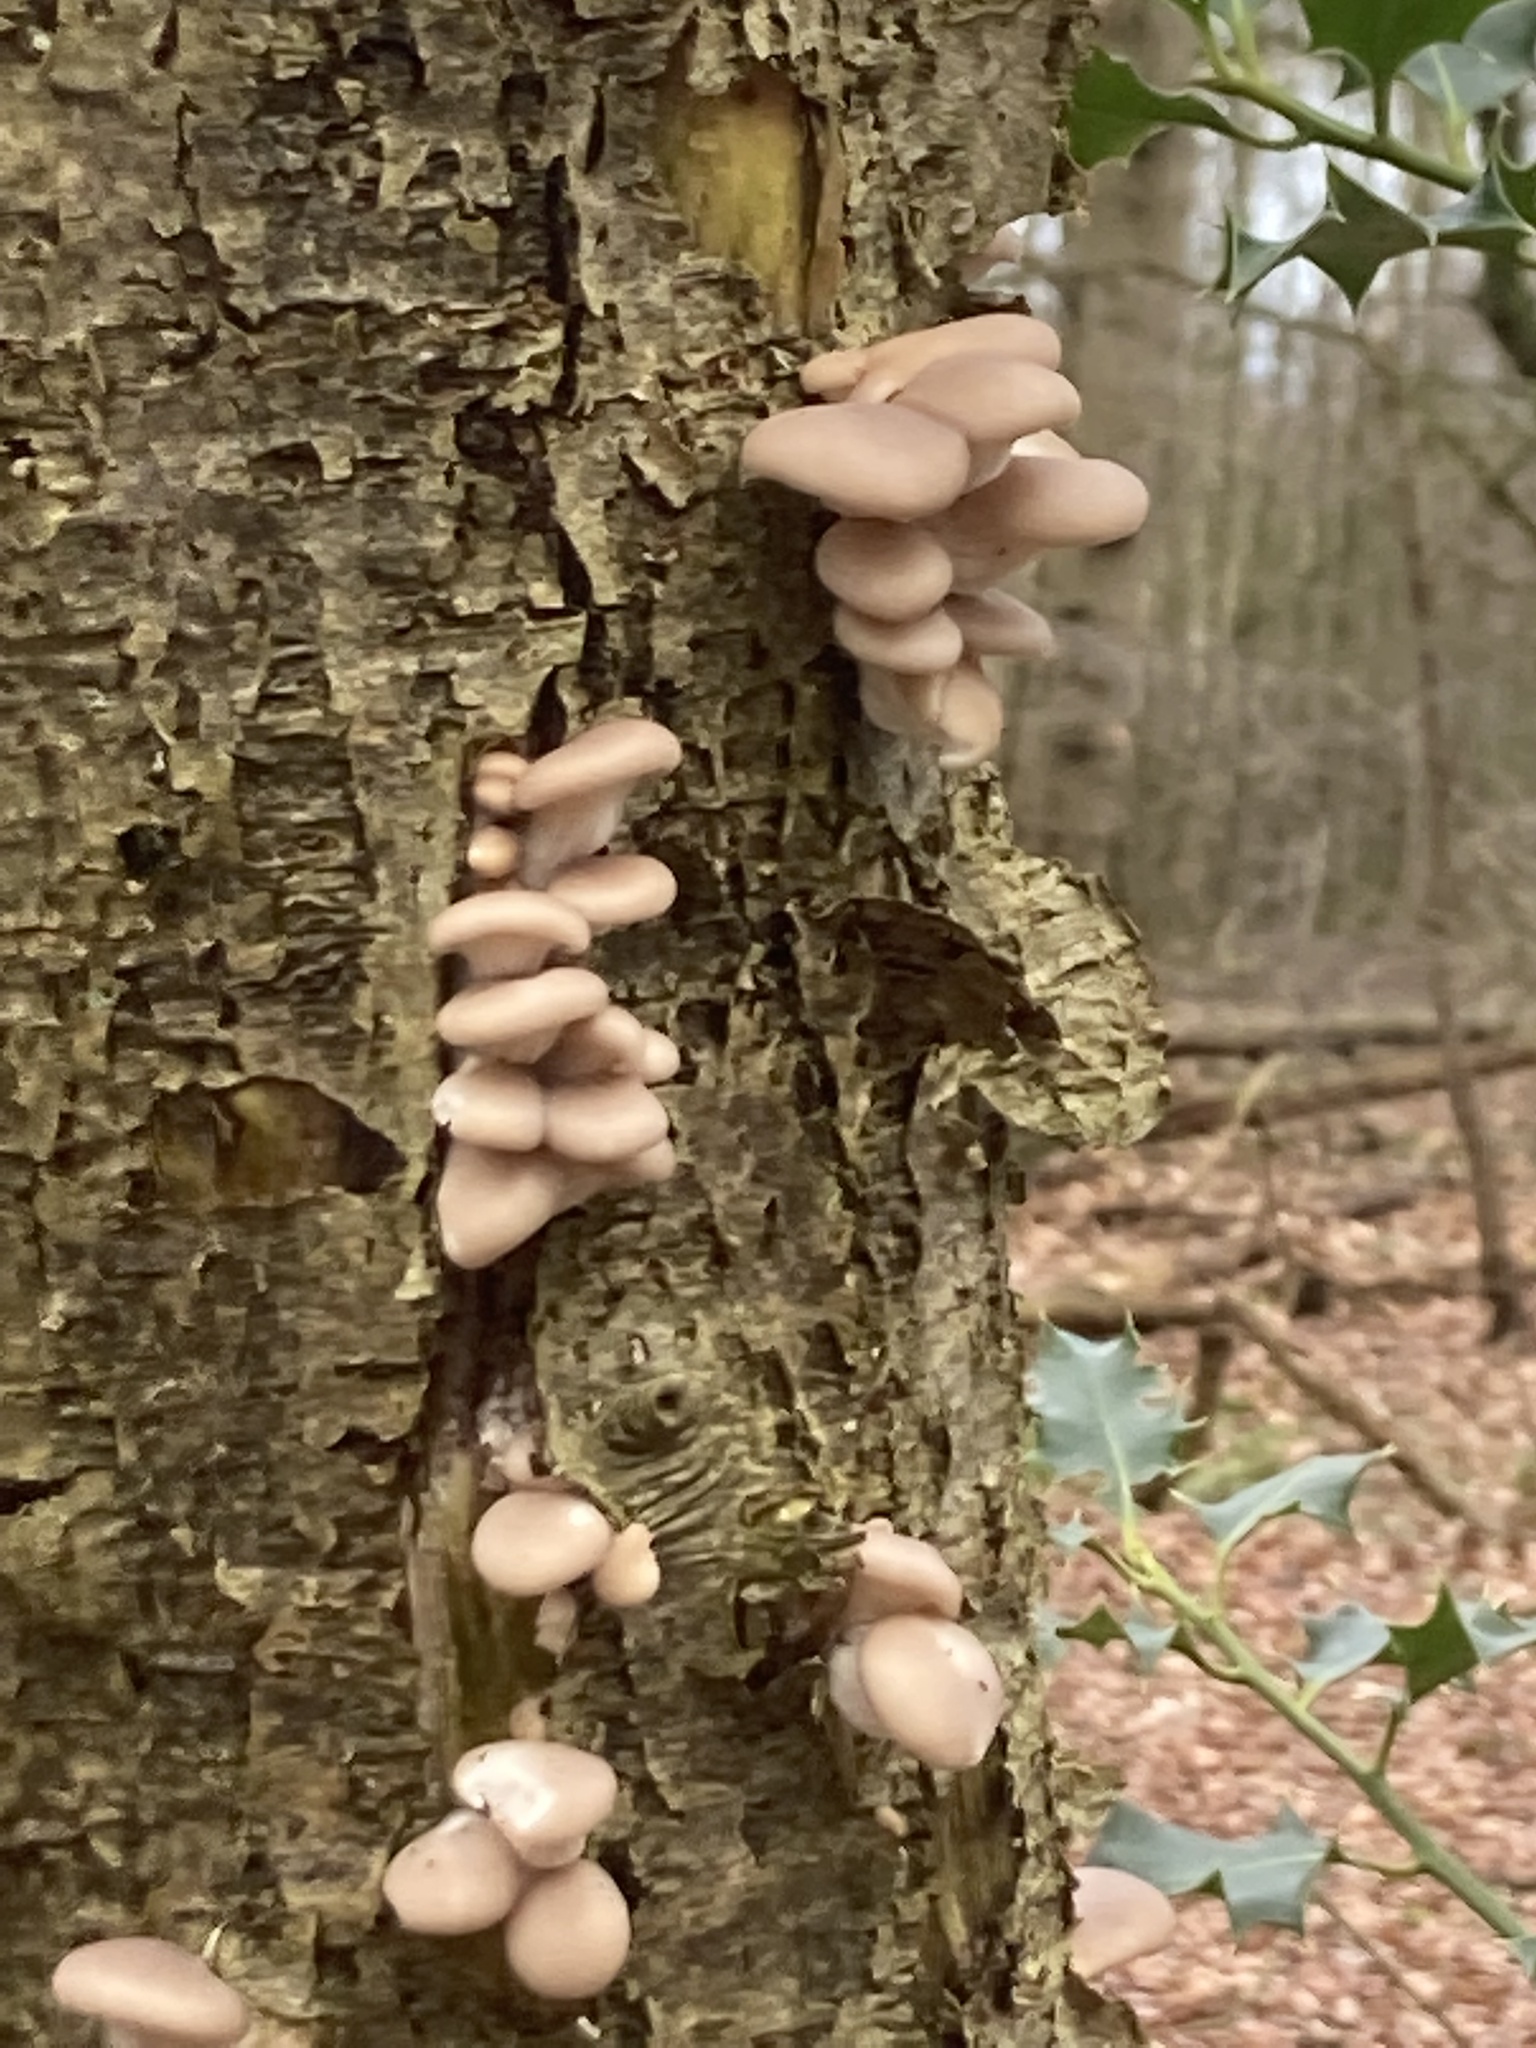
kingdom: Fungi
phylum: Basidiomycota
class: Agaricomycetes
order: Agaricales
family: Pleurotaceae
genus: Pleurotus
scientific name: Pleurotus ostreatus
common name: Oyster mushroom
